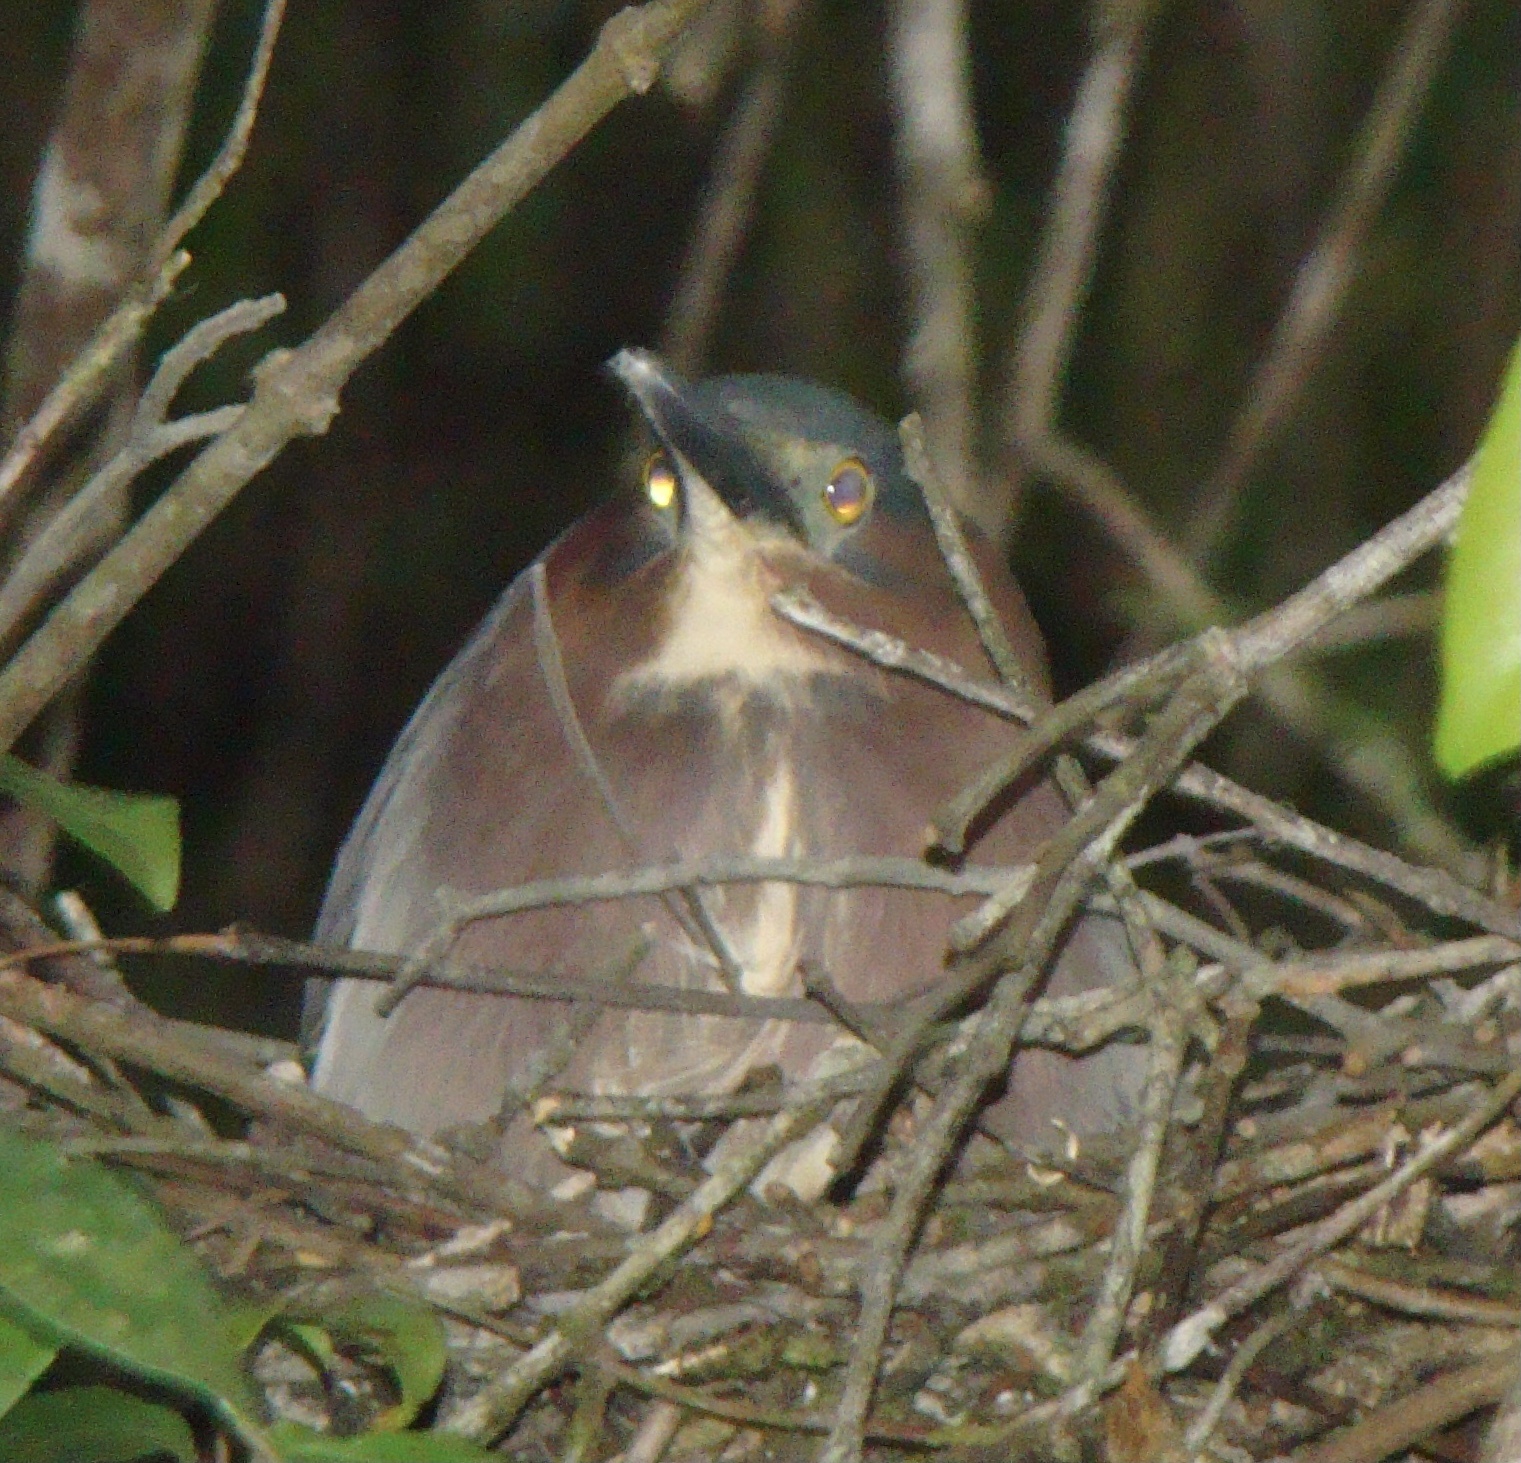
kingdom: Animalia
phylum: Chordata
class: Aves
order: Pelecaniformes
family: Ardeidae
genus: Butorides
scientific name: Butorides virescens
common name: Green heron
